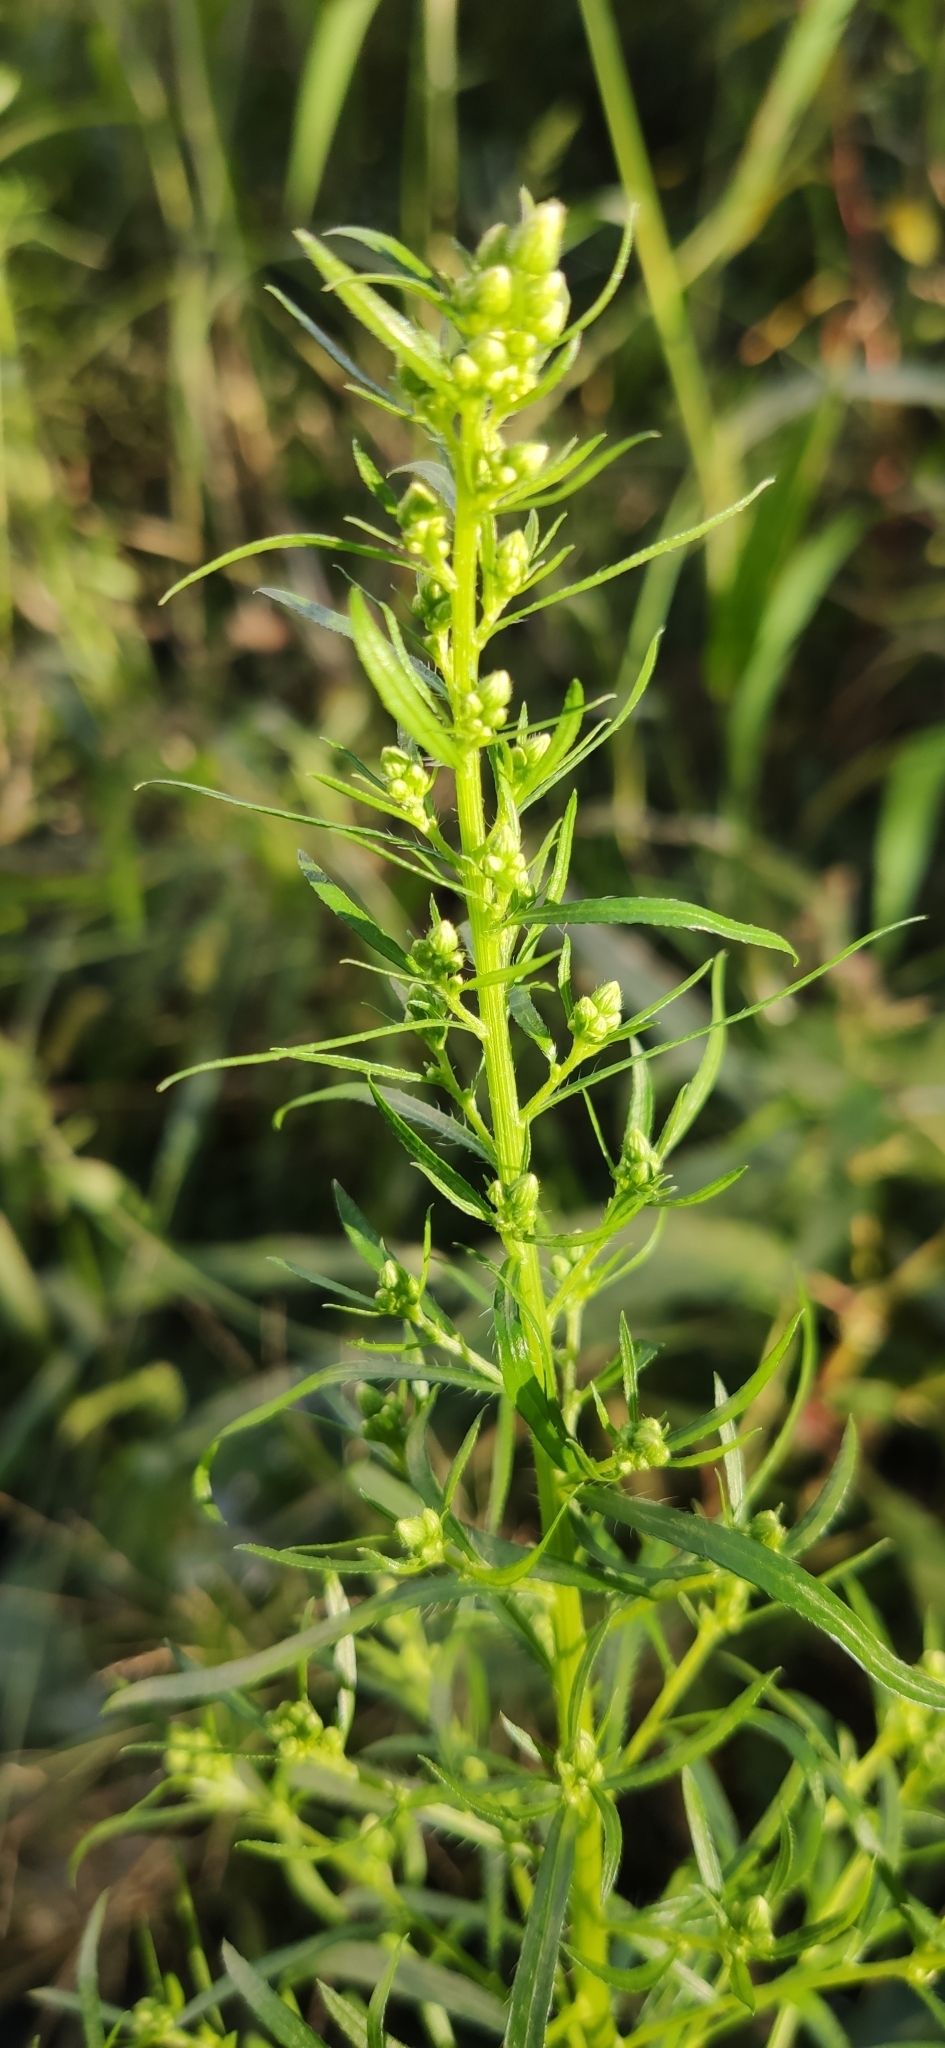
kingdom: Plantae
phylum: Tracheophyta
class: Magnoliopsida
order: Asterales
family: Asteraceae
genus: Erigeron
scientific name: Erigeron canadensis
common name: Canadian fleabane
